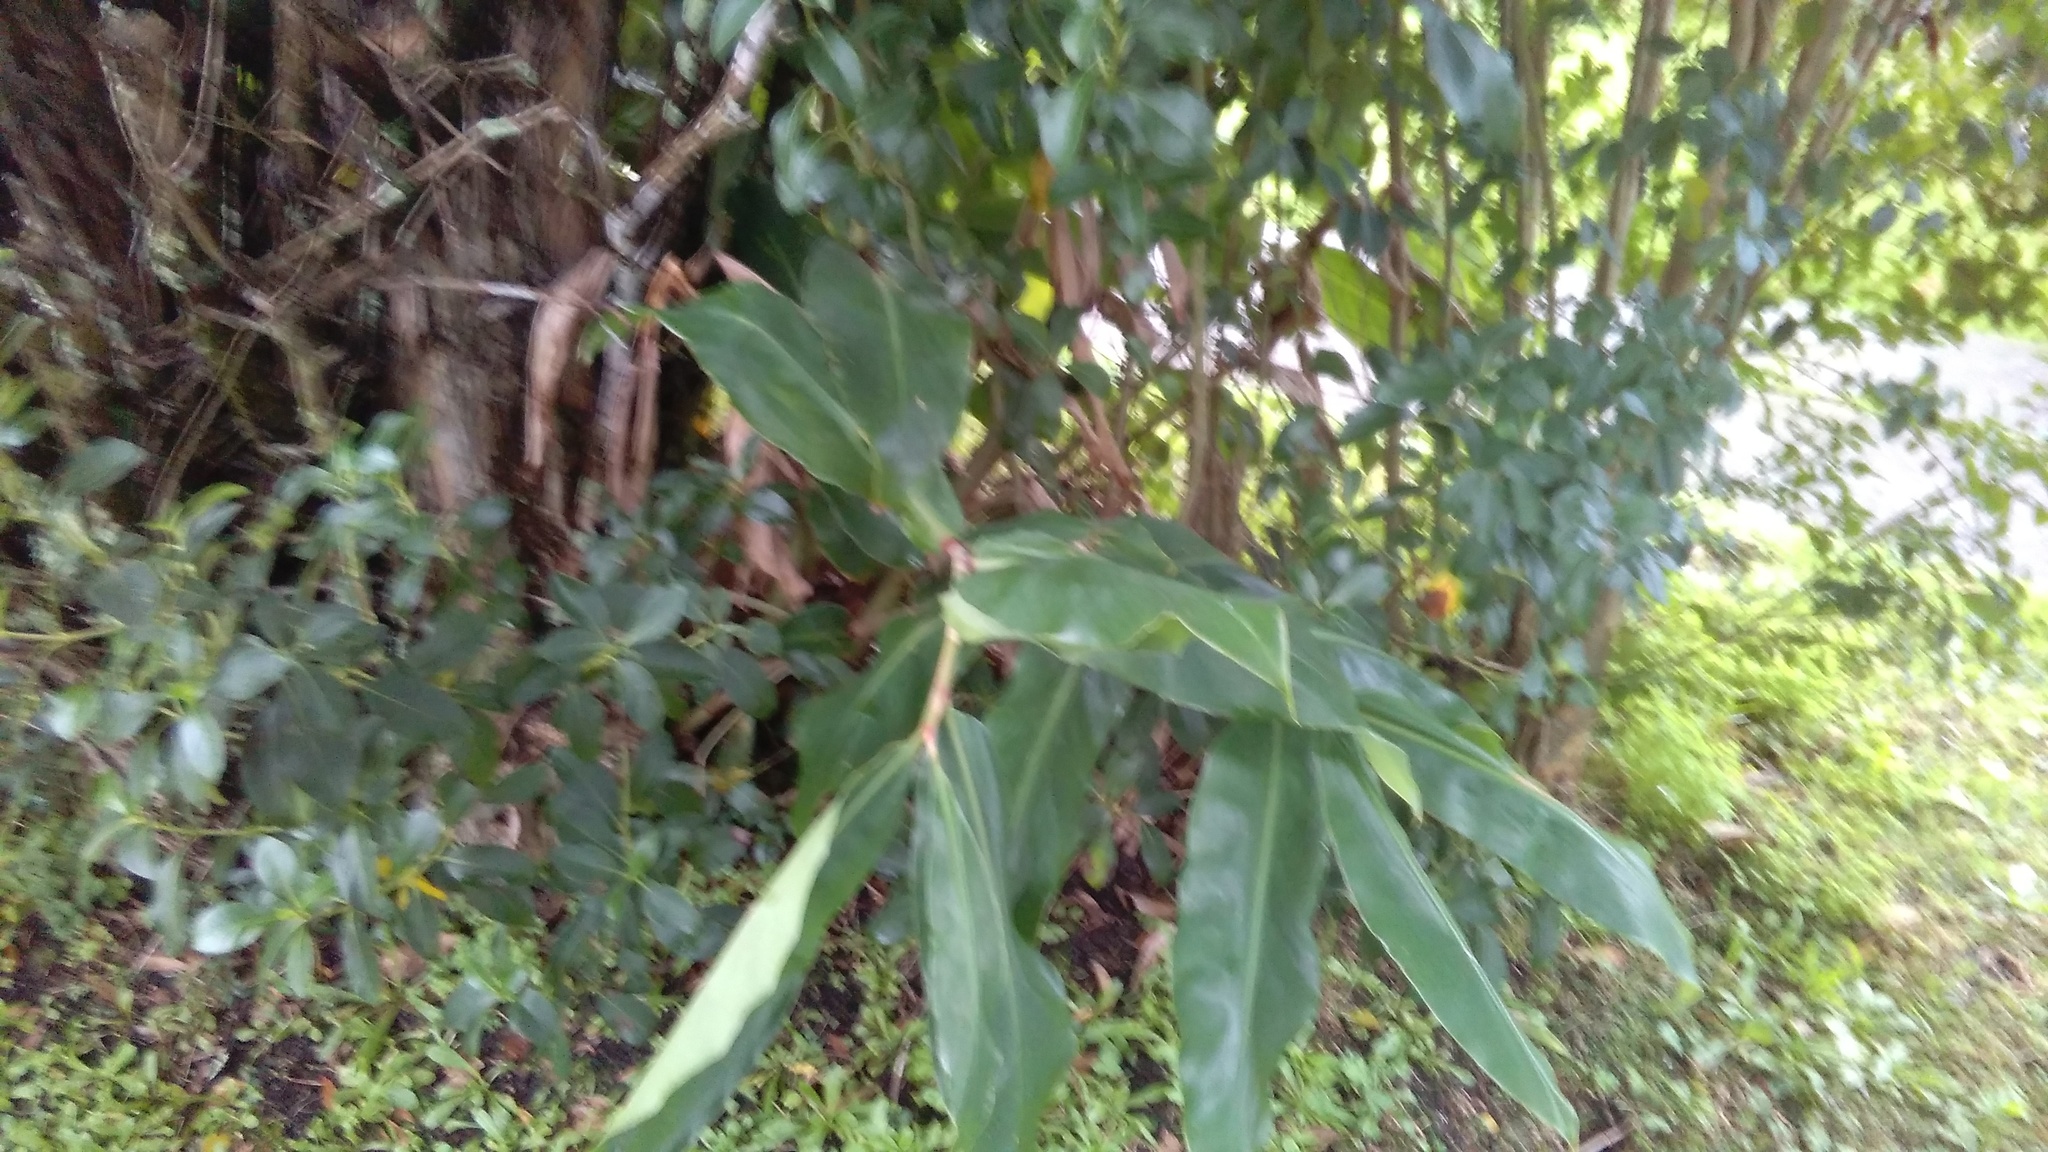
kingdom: Plantae
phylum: Tracheophyta
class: Liliopsida
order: Zingiberales
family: Zingiberaceae
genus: Hedychium
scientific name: Hedychium gardnerianum
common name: Himalayan ginger
